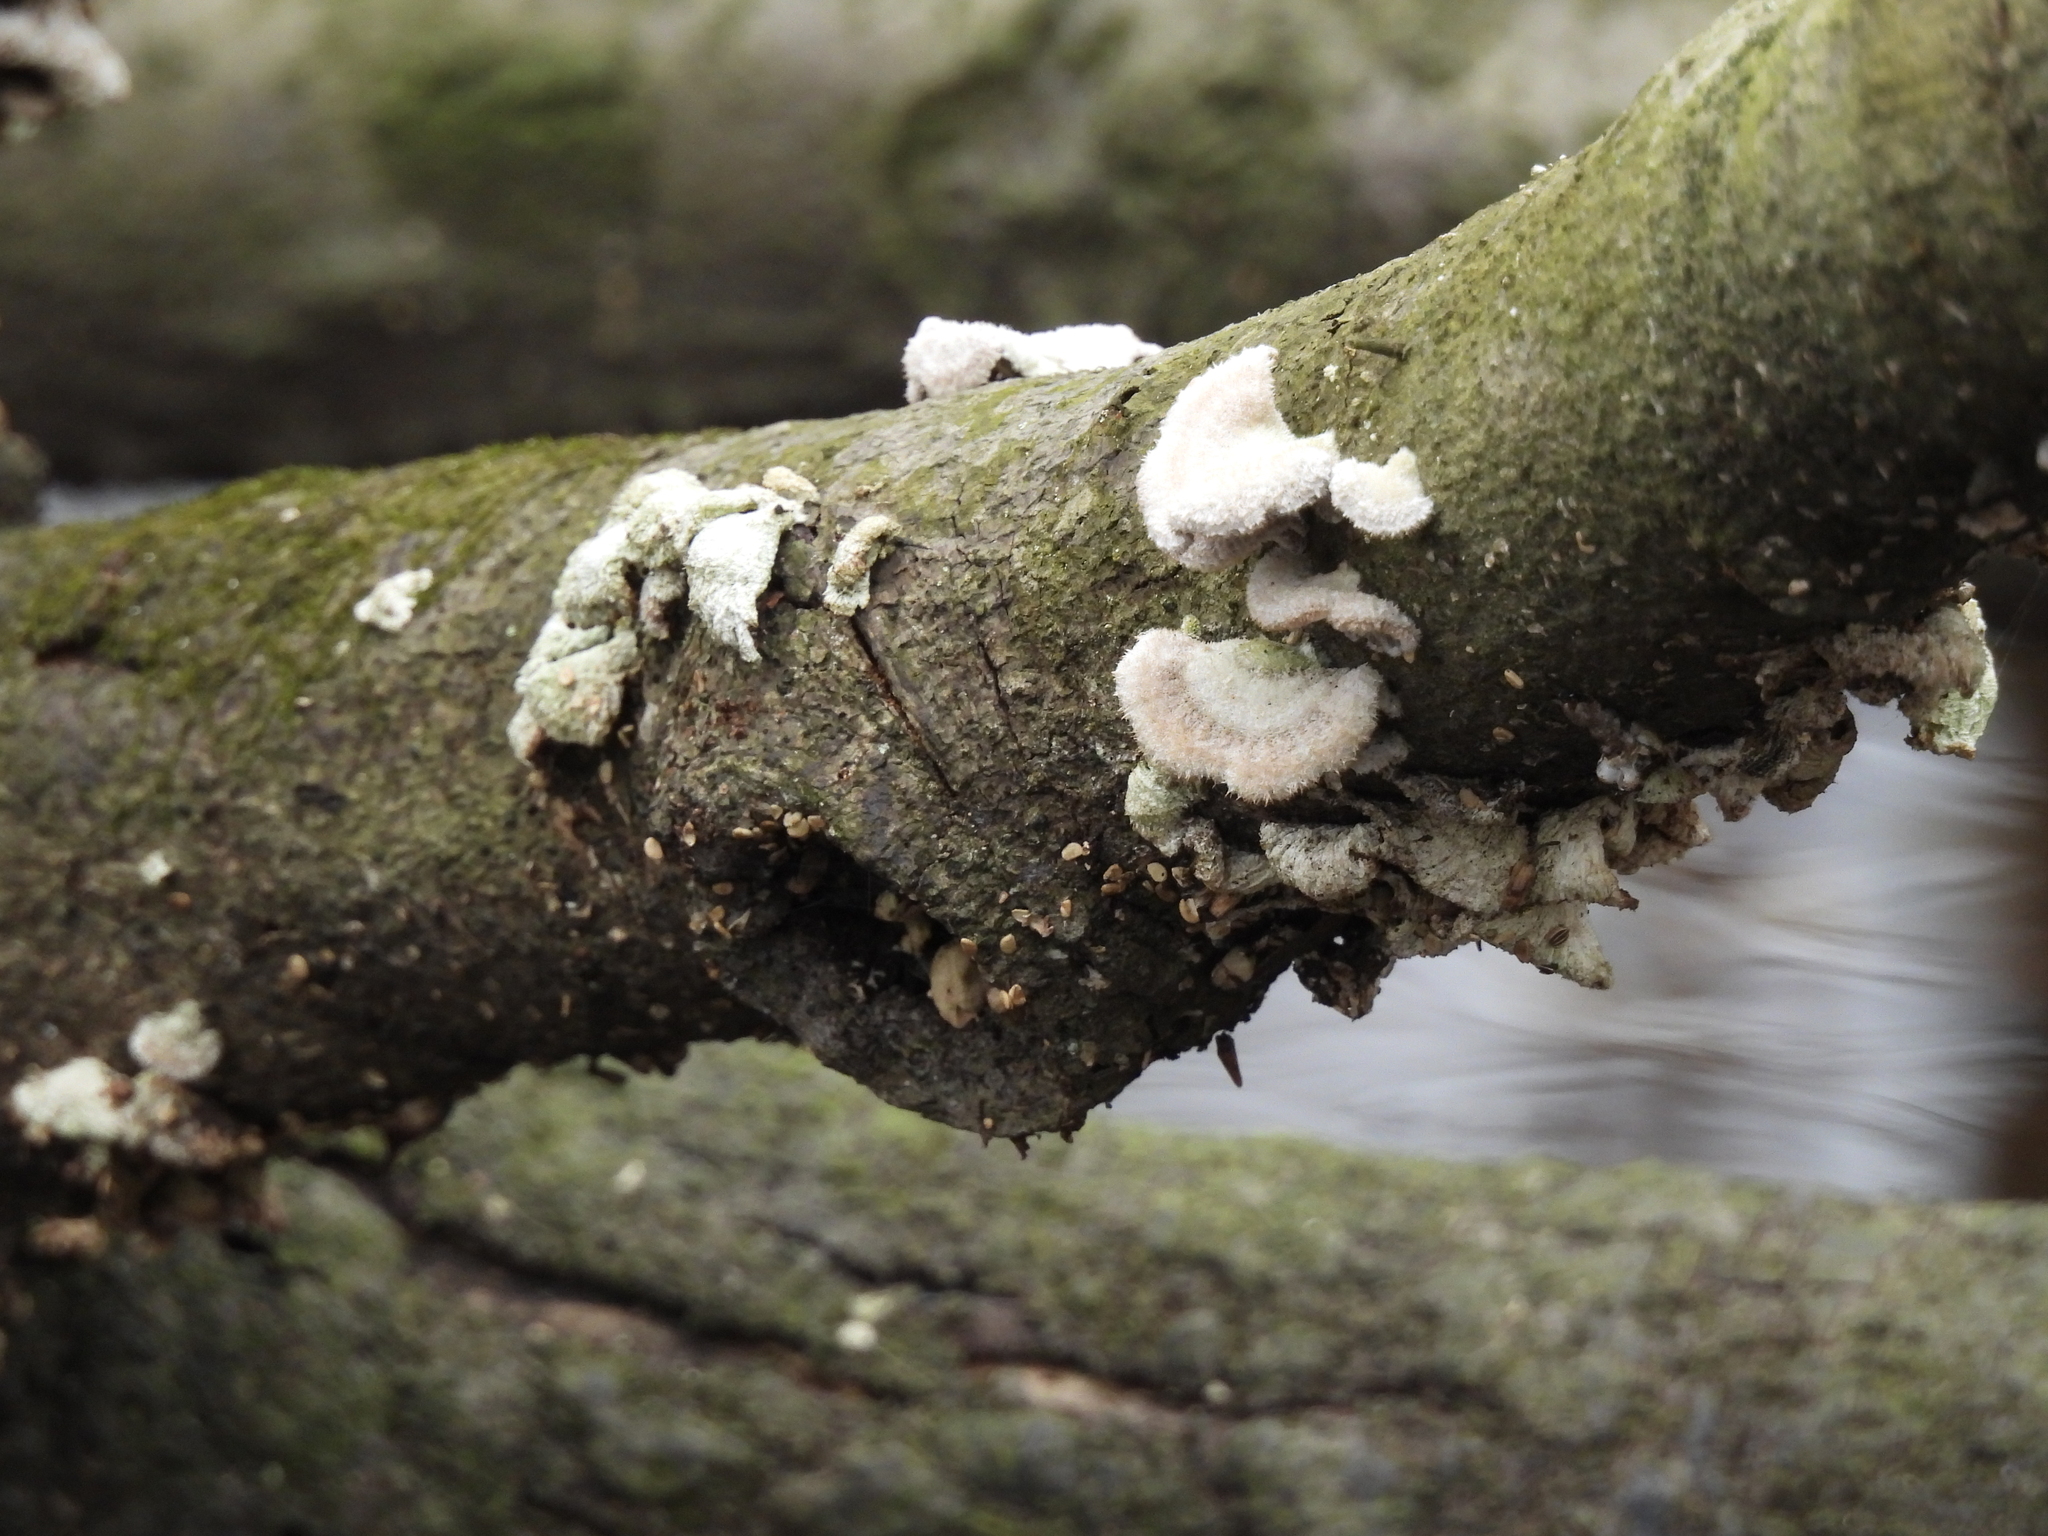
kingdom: Fungi
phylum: Basidiomycota
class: Agaricomycetes
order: Agaricales
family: Schizophyllaceae
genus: Schizophyllum
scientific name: Schizophyllum commune
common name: Common porecrust
